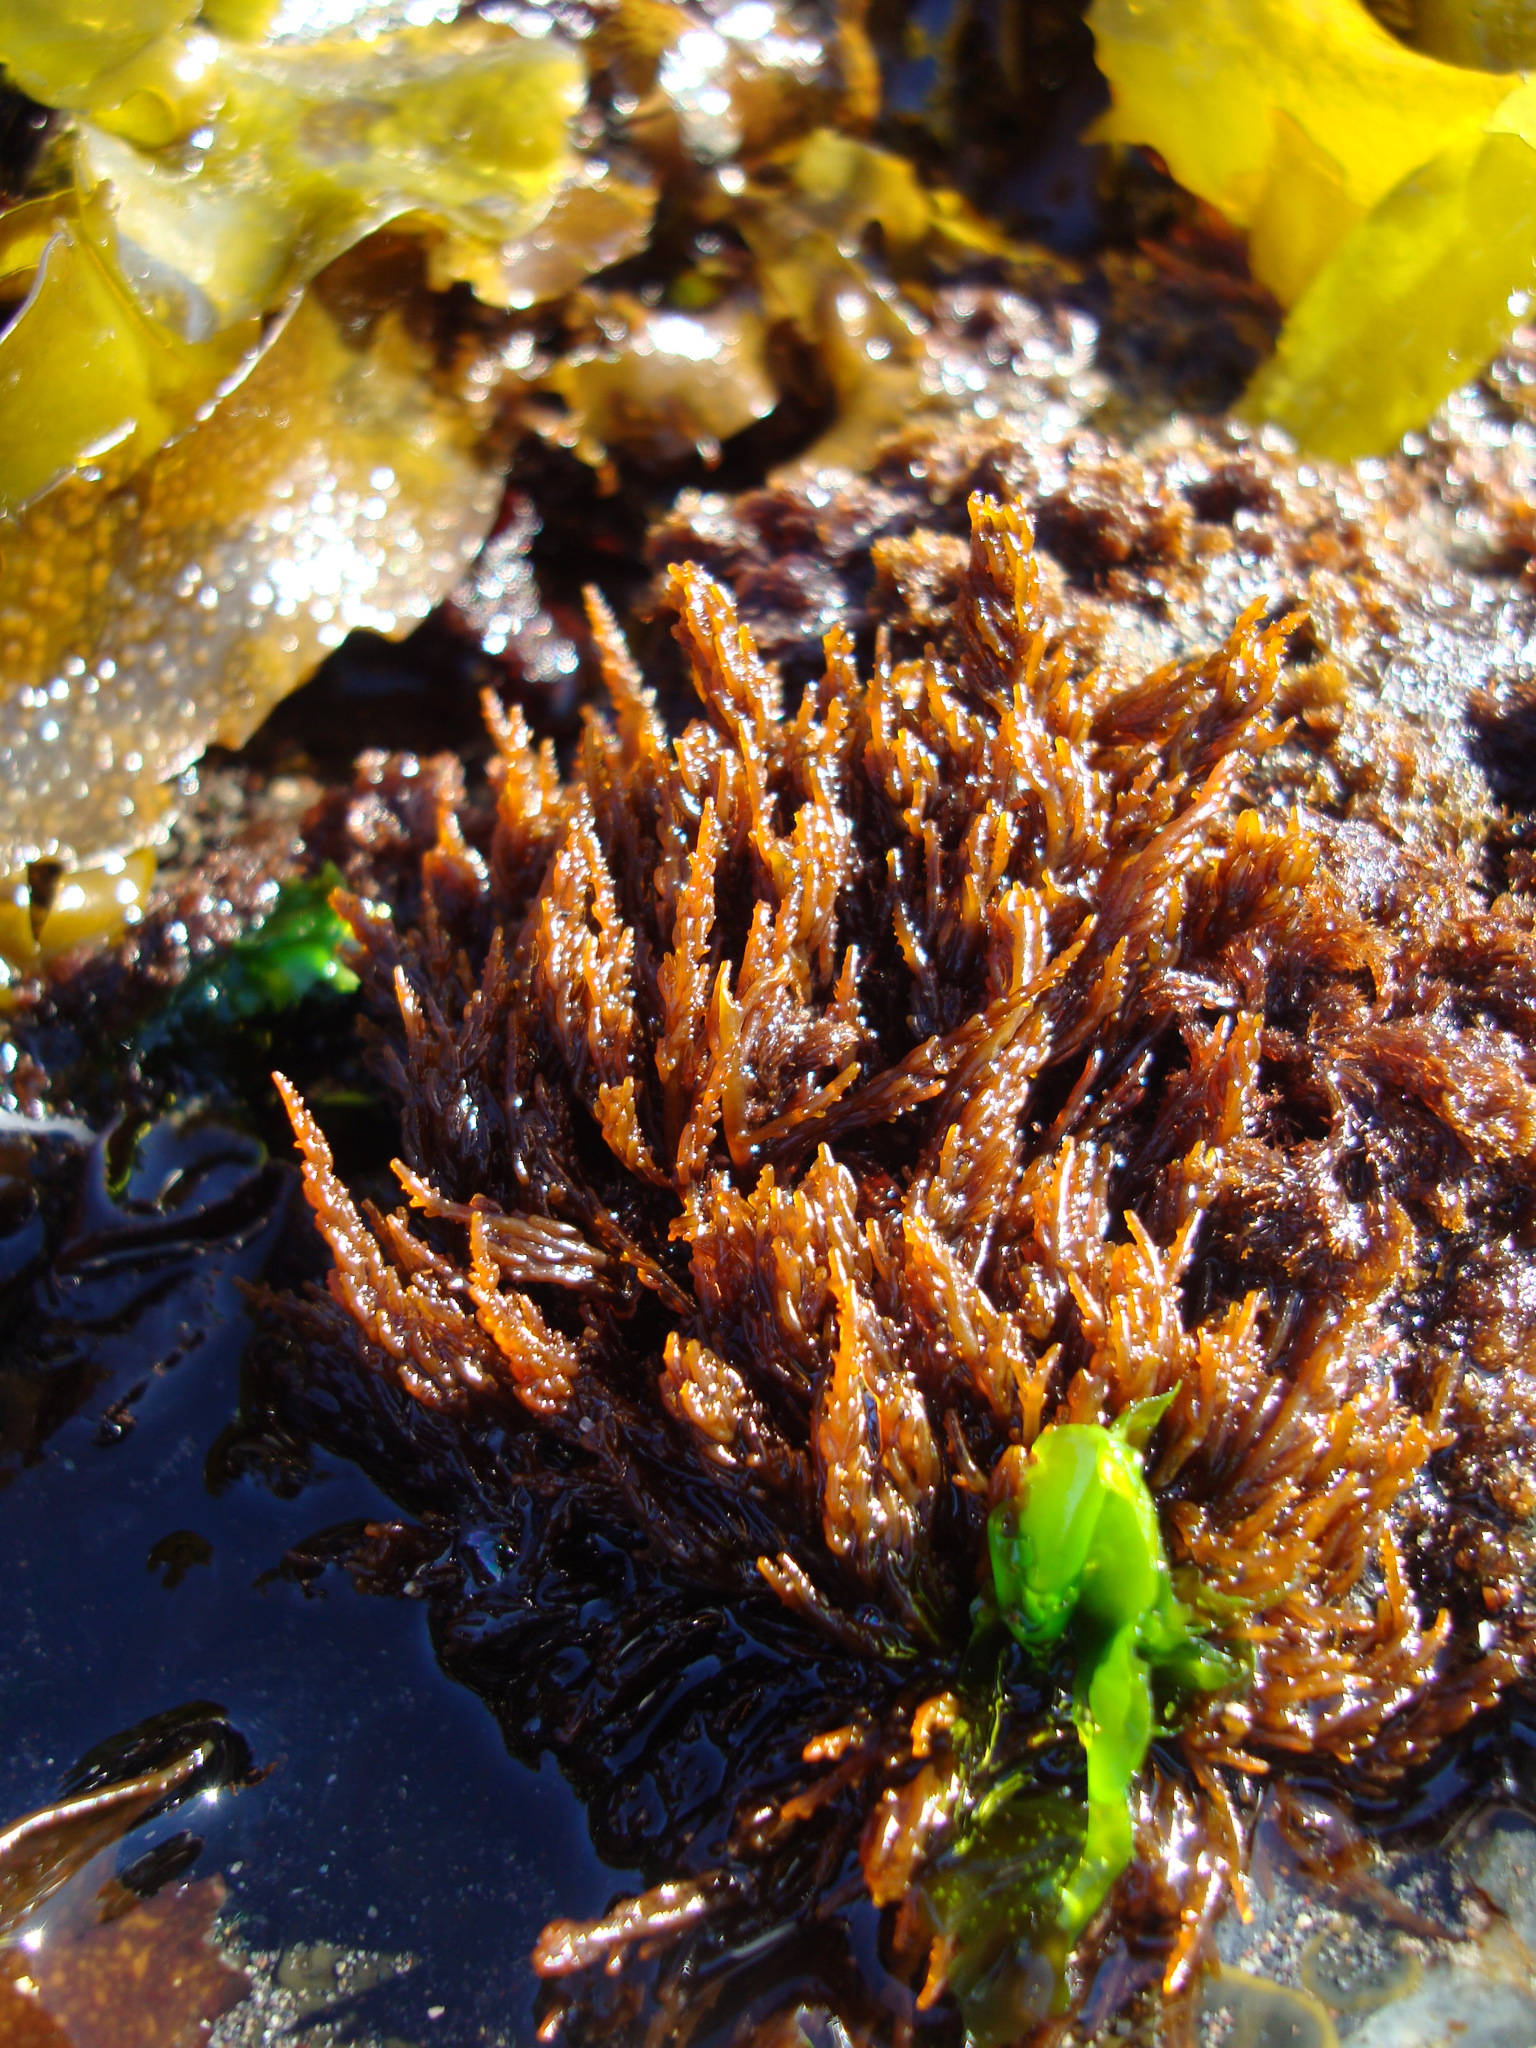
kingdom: Plantae
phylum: Rhodophyta
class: Florideophyceae
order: Ceramiales
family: Rhodomelaceae
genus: Chondria
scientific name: Chondria
